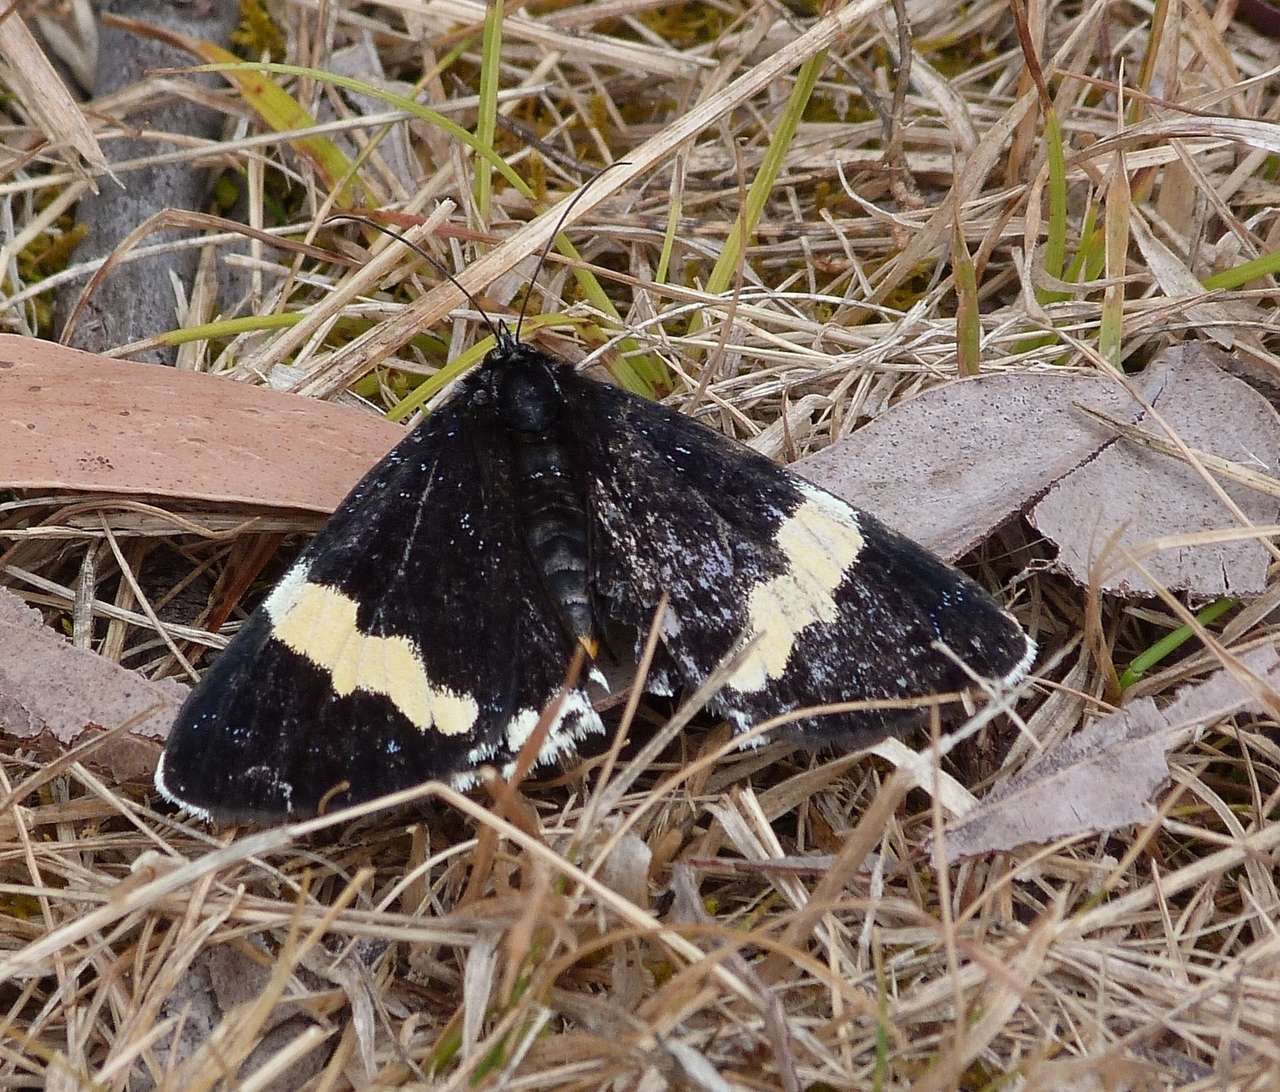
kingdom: Animalia
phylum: Arthropoda
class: Insecta
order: Lepidoptera
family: Noctuidae
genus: Eutrichopidia
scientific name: Eutrichopidia latinus
